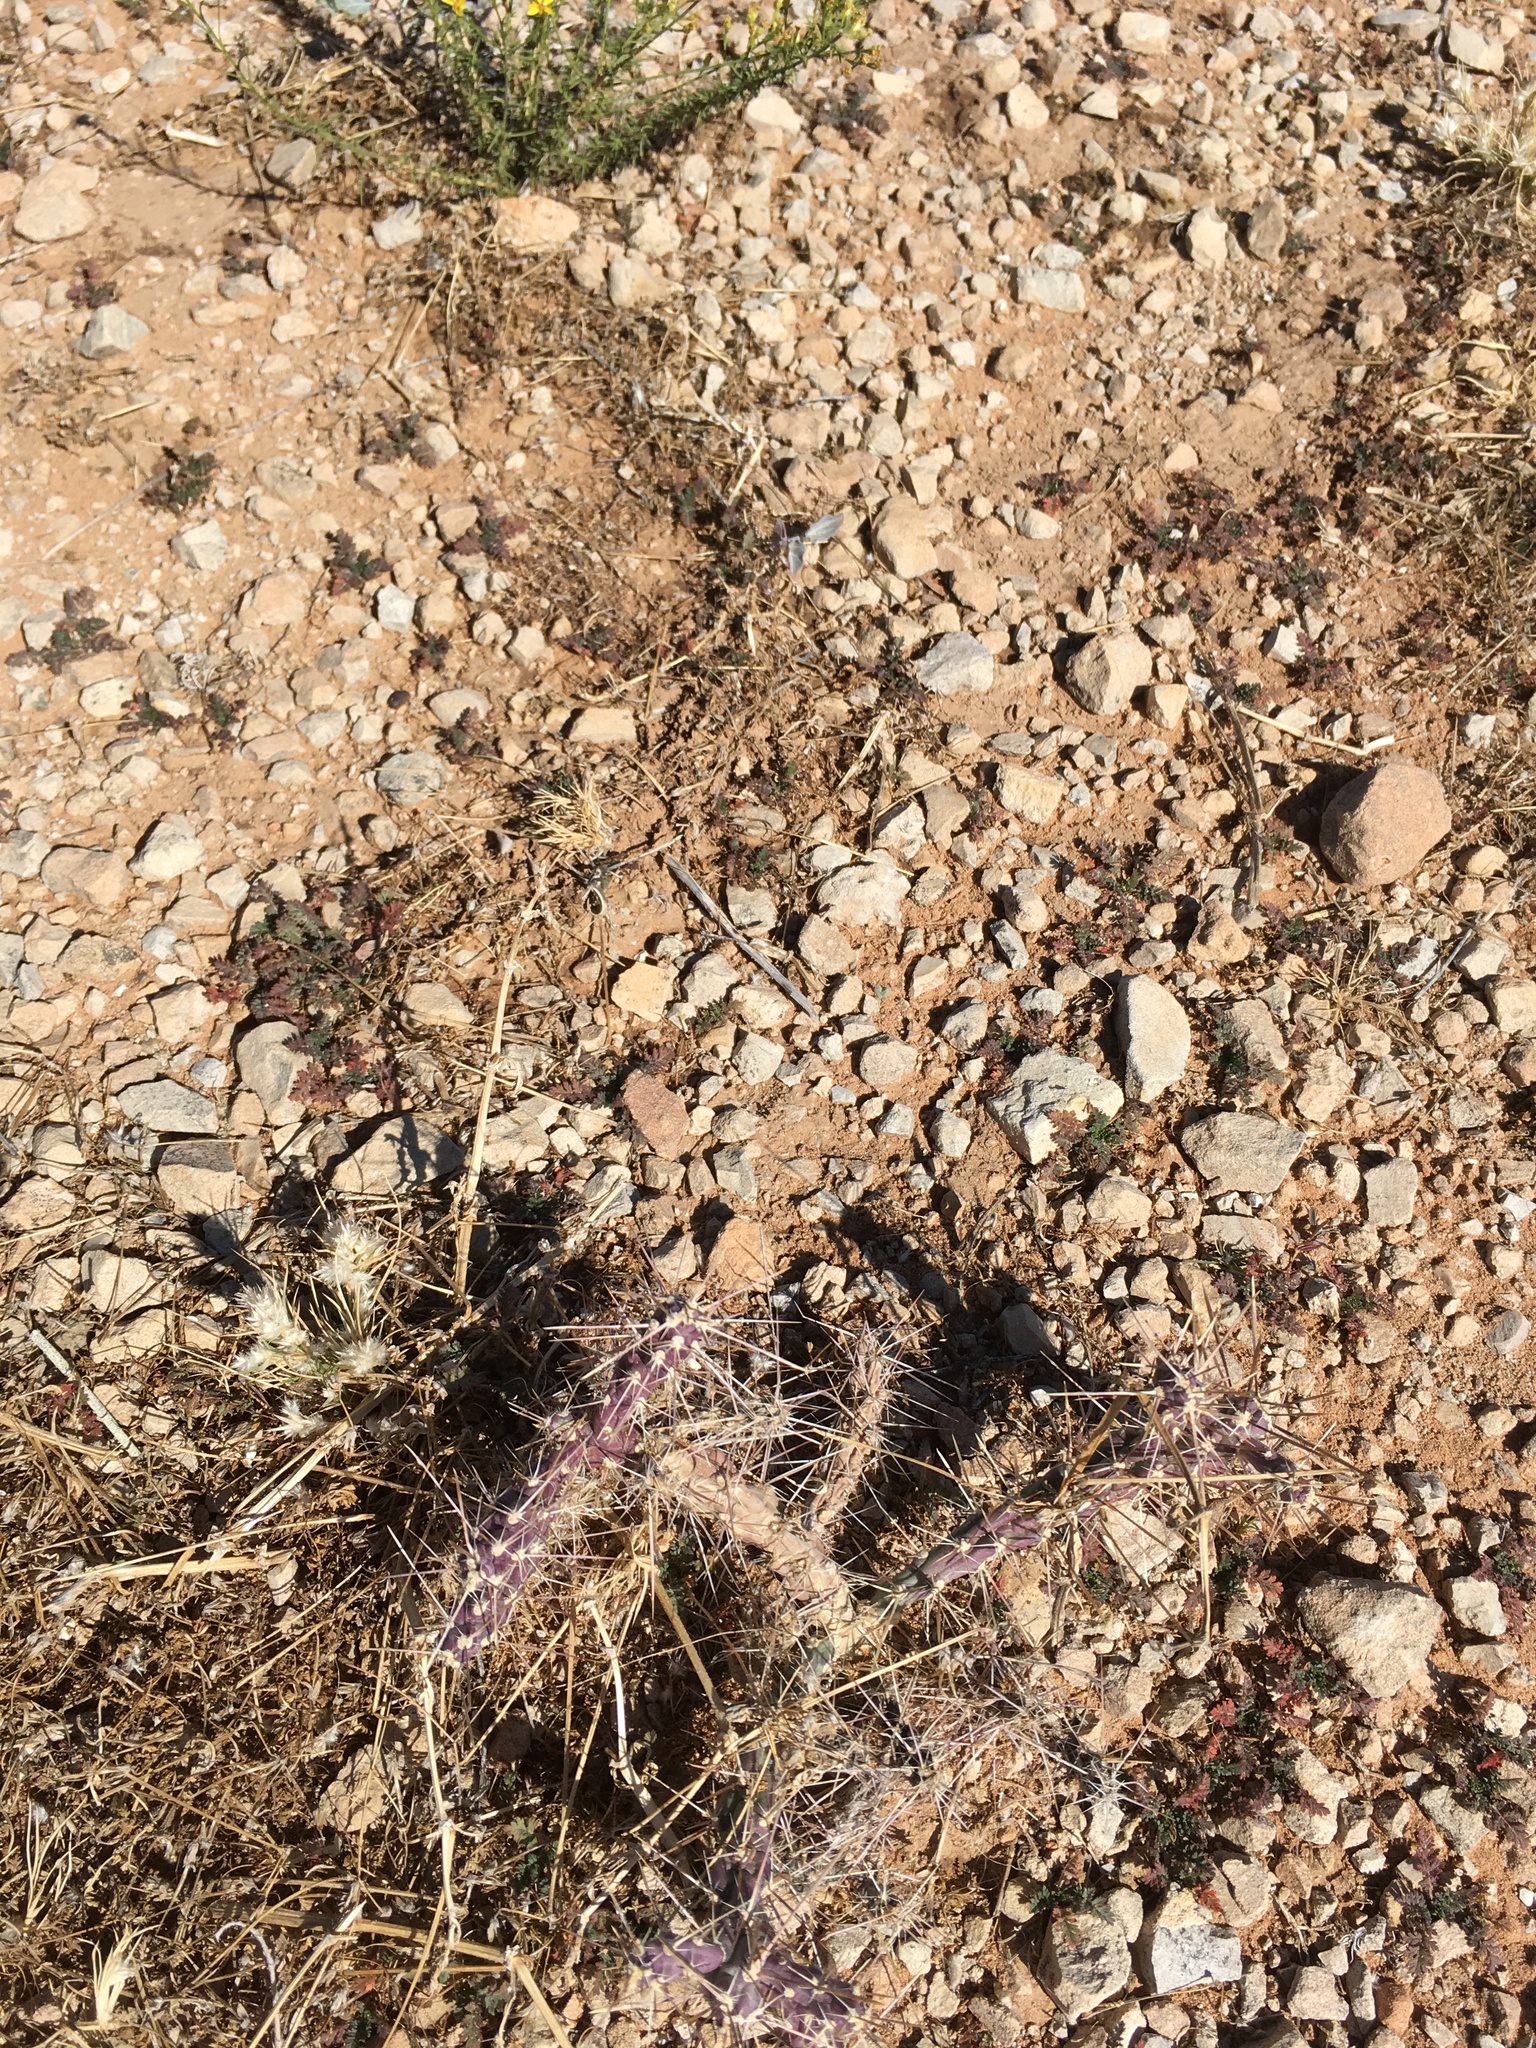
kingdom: Plantae
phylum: Tracheophyta
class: Magnoliopsida
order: Caryophyllales
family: Cactaceae
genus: Cylindropuntia
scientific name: Cylindropuntia davisii
